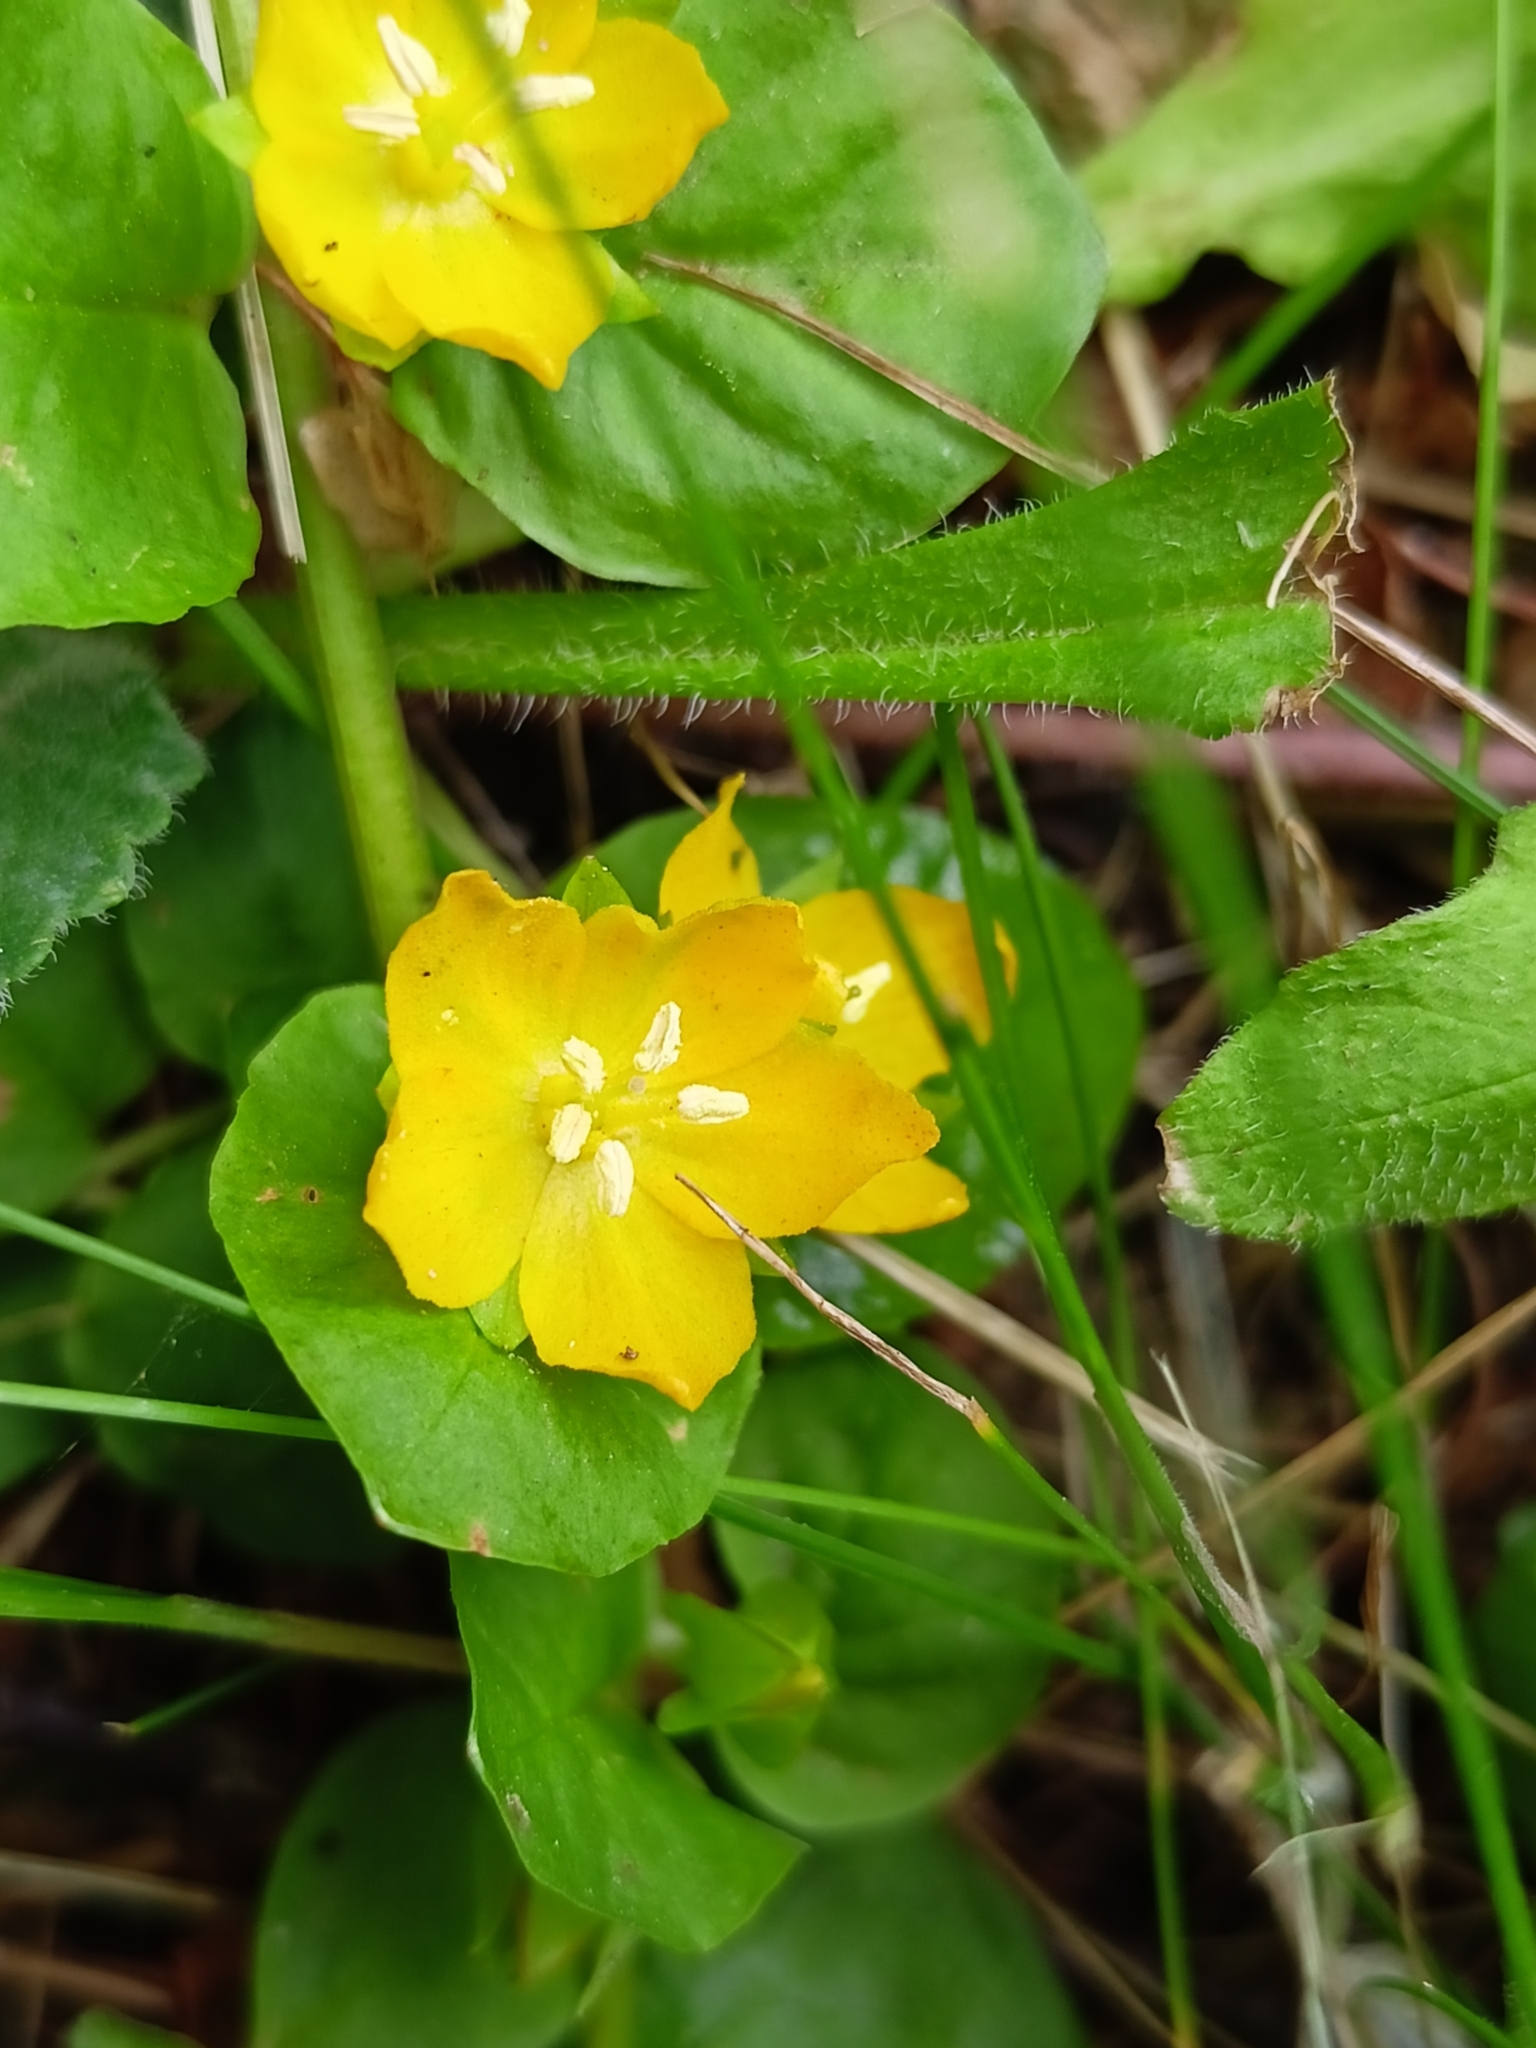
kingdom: Plantae
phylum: Tracheophyta
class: Magnoliopsida
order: Ericales
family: Primulaceae
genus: Lysimachia
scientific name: Lysimachia nummularia
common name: Moneywort
